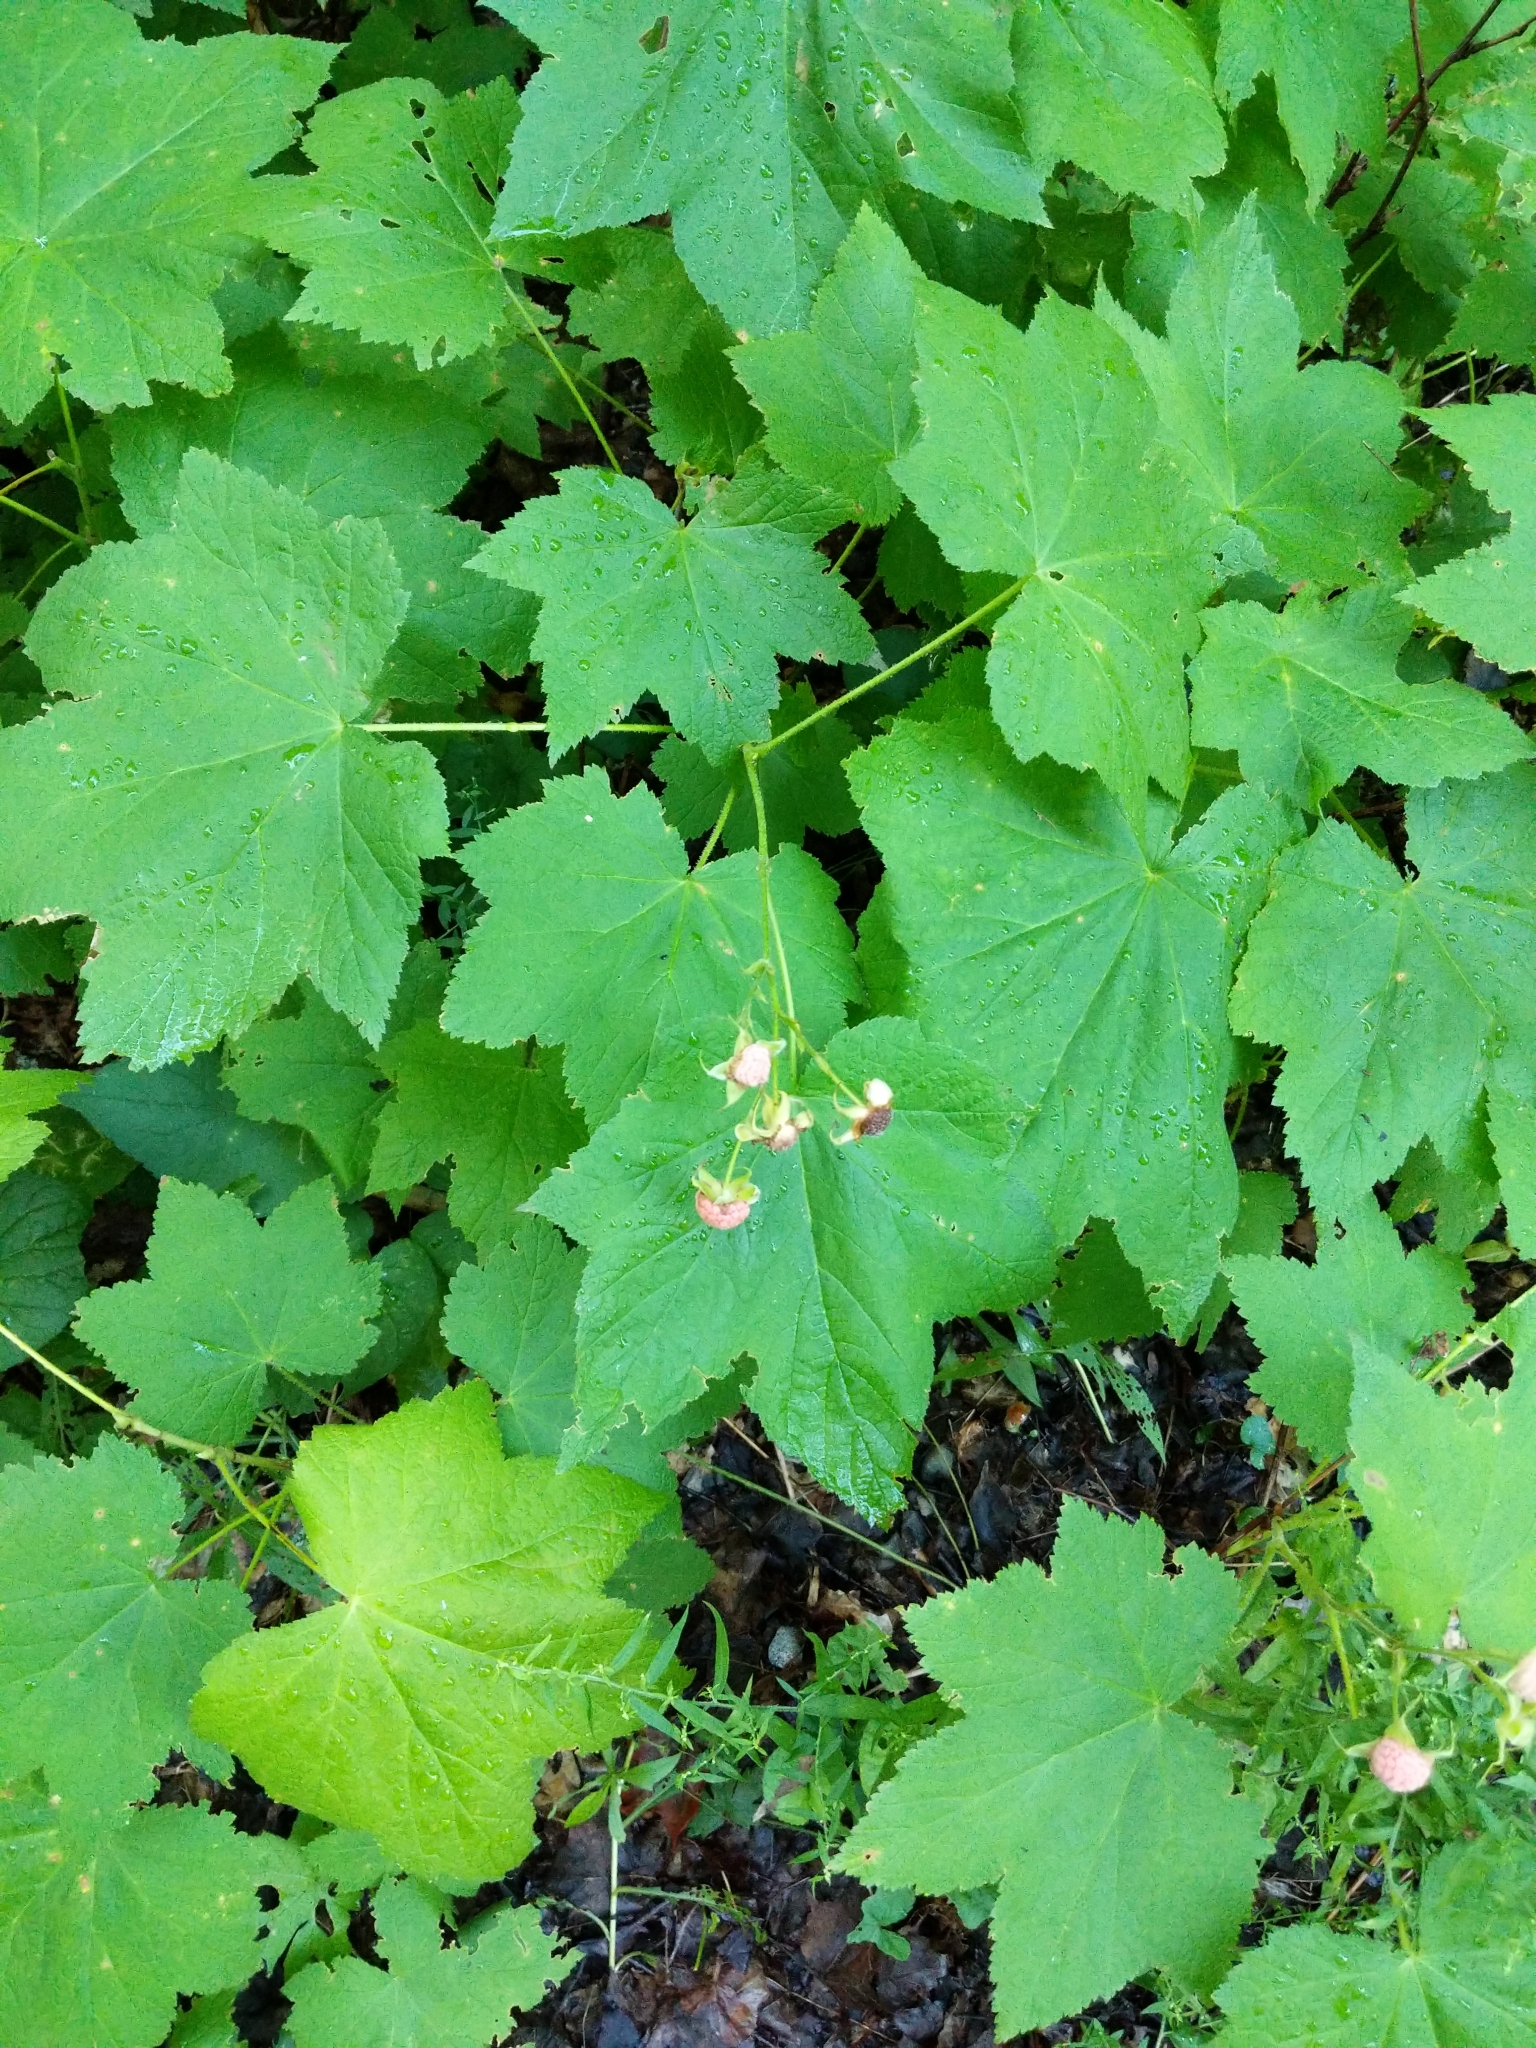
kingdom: Plantae
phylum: Tracheophyta
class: Magnoliopsida
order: Rosales
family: Rosaceae
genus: Rubus
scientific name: Rubus parviflorus
